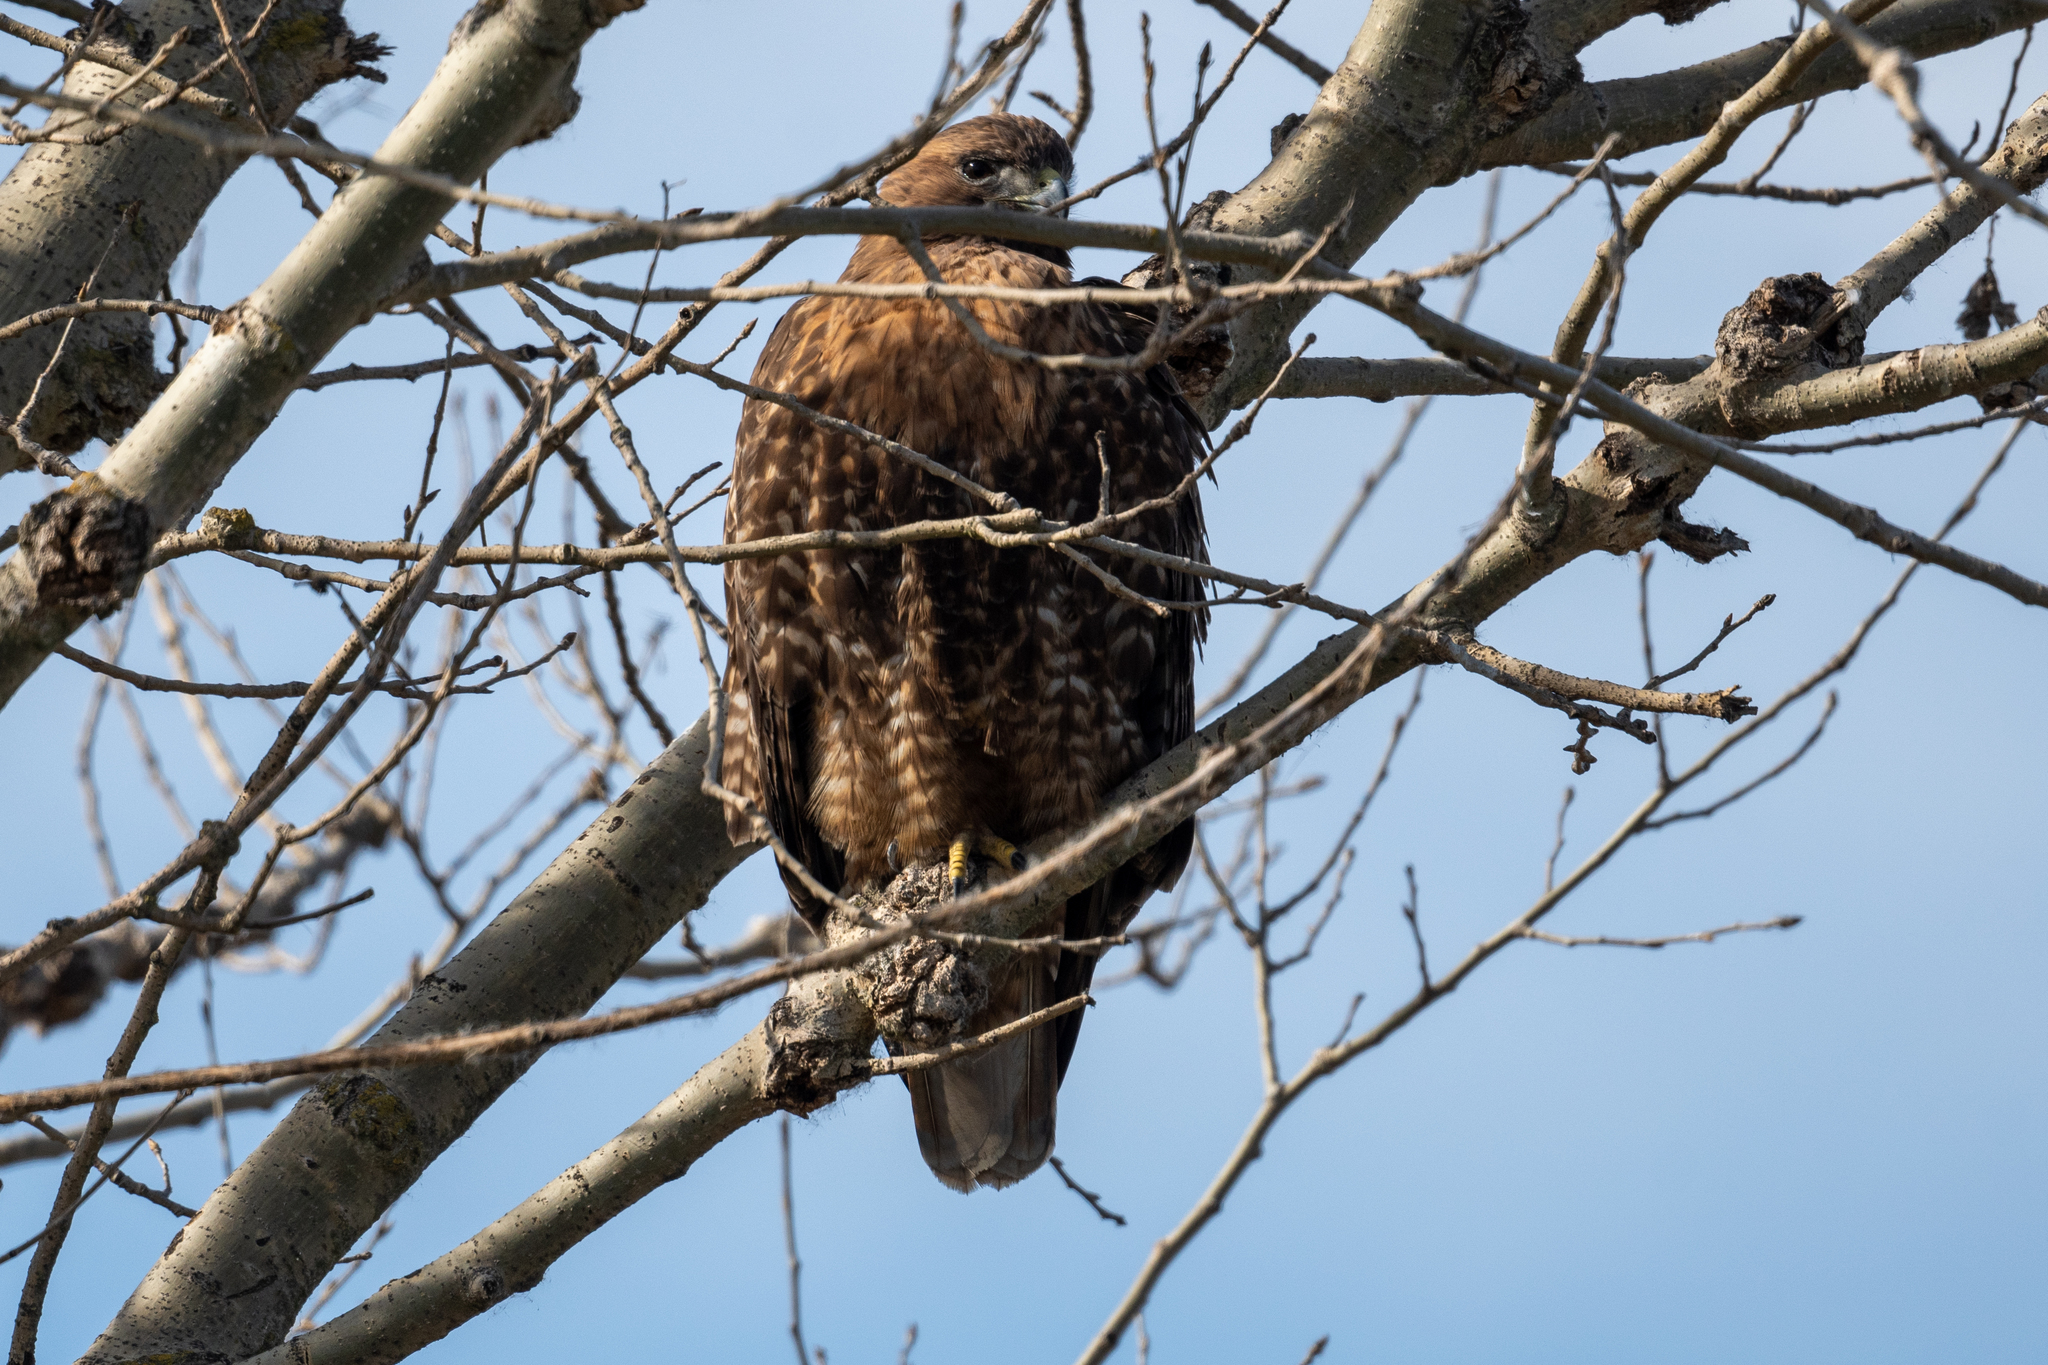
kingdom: Animalia
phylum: Chordata
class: Aves
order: Accipitriformes
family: Accipitridae
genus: Buteo
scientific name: Buteo jamaicensis
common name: Red-tailed hawk
